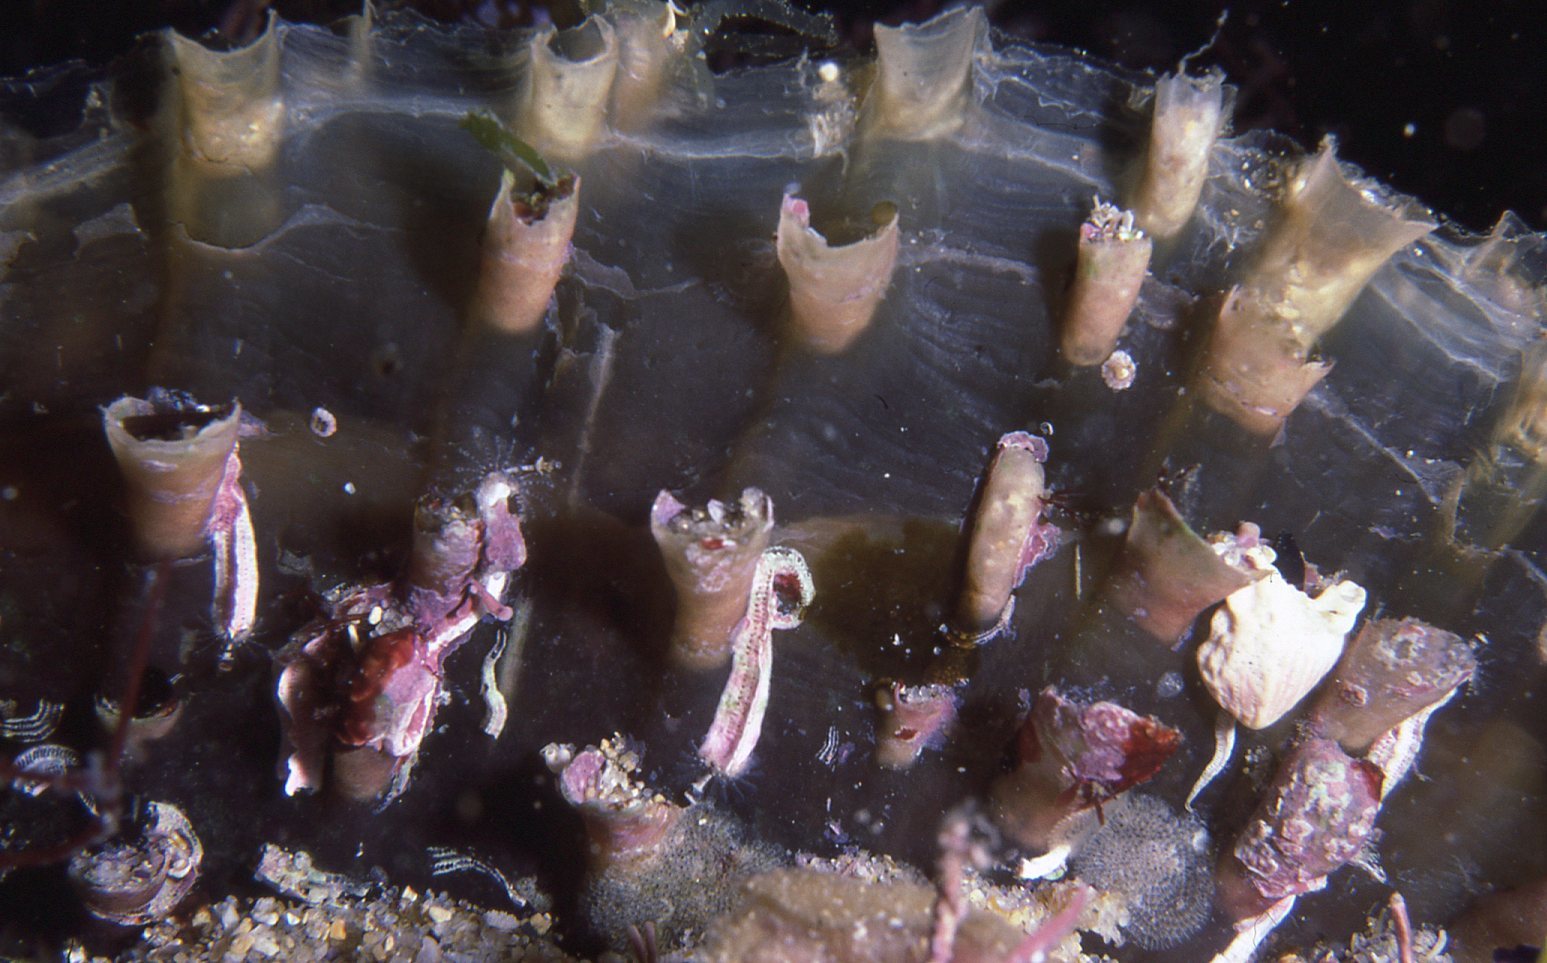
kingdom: Animalia
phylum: Mollusca
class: Bivalvia
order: Ostreida
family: Pinnidae
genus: Atrina
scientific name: Atrina tasmanica
